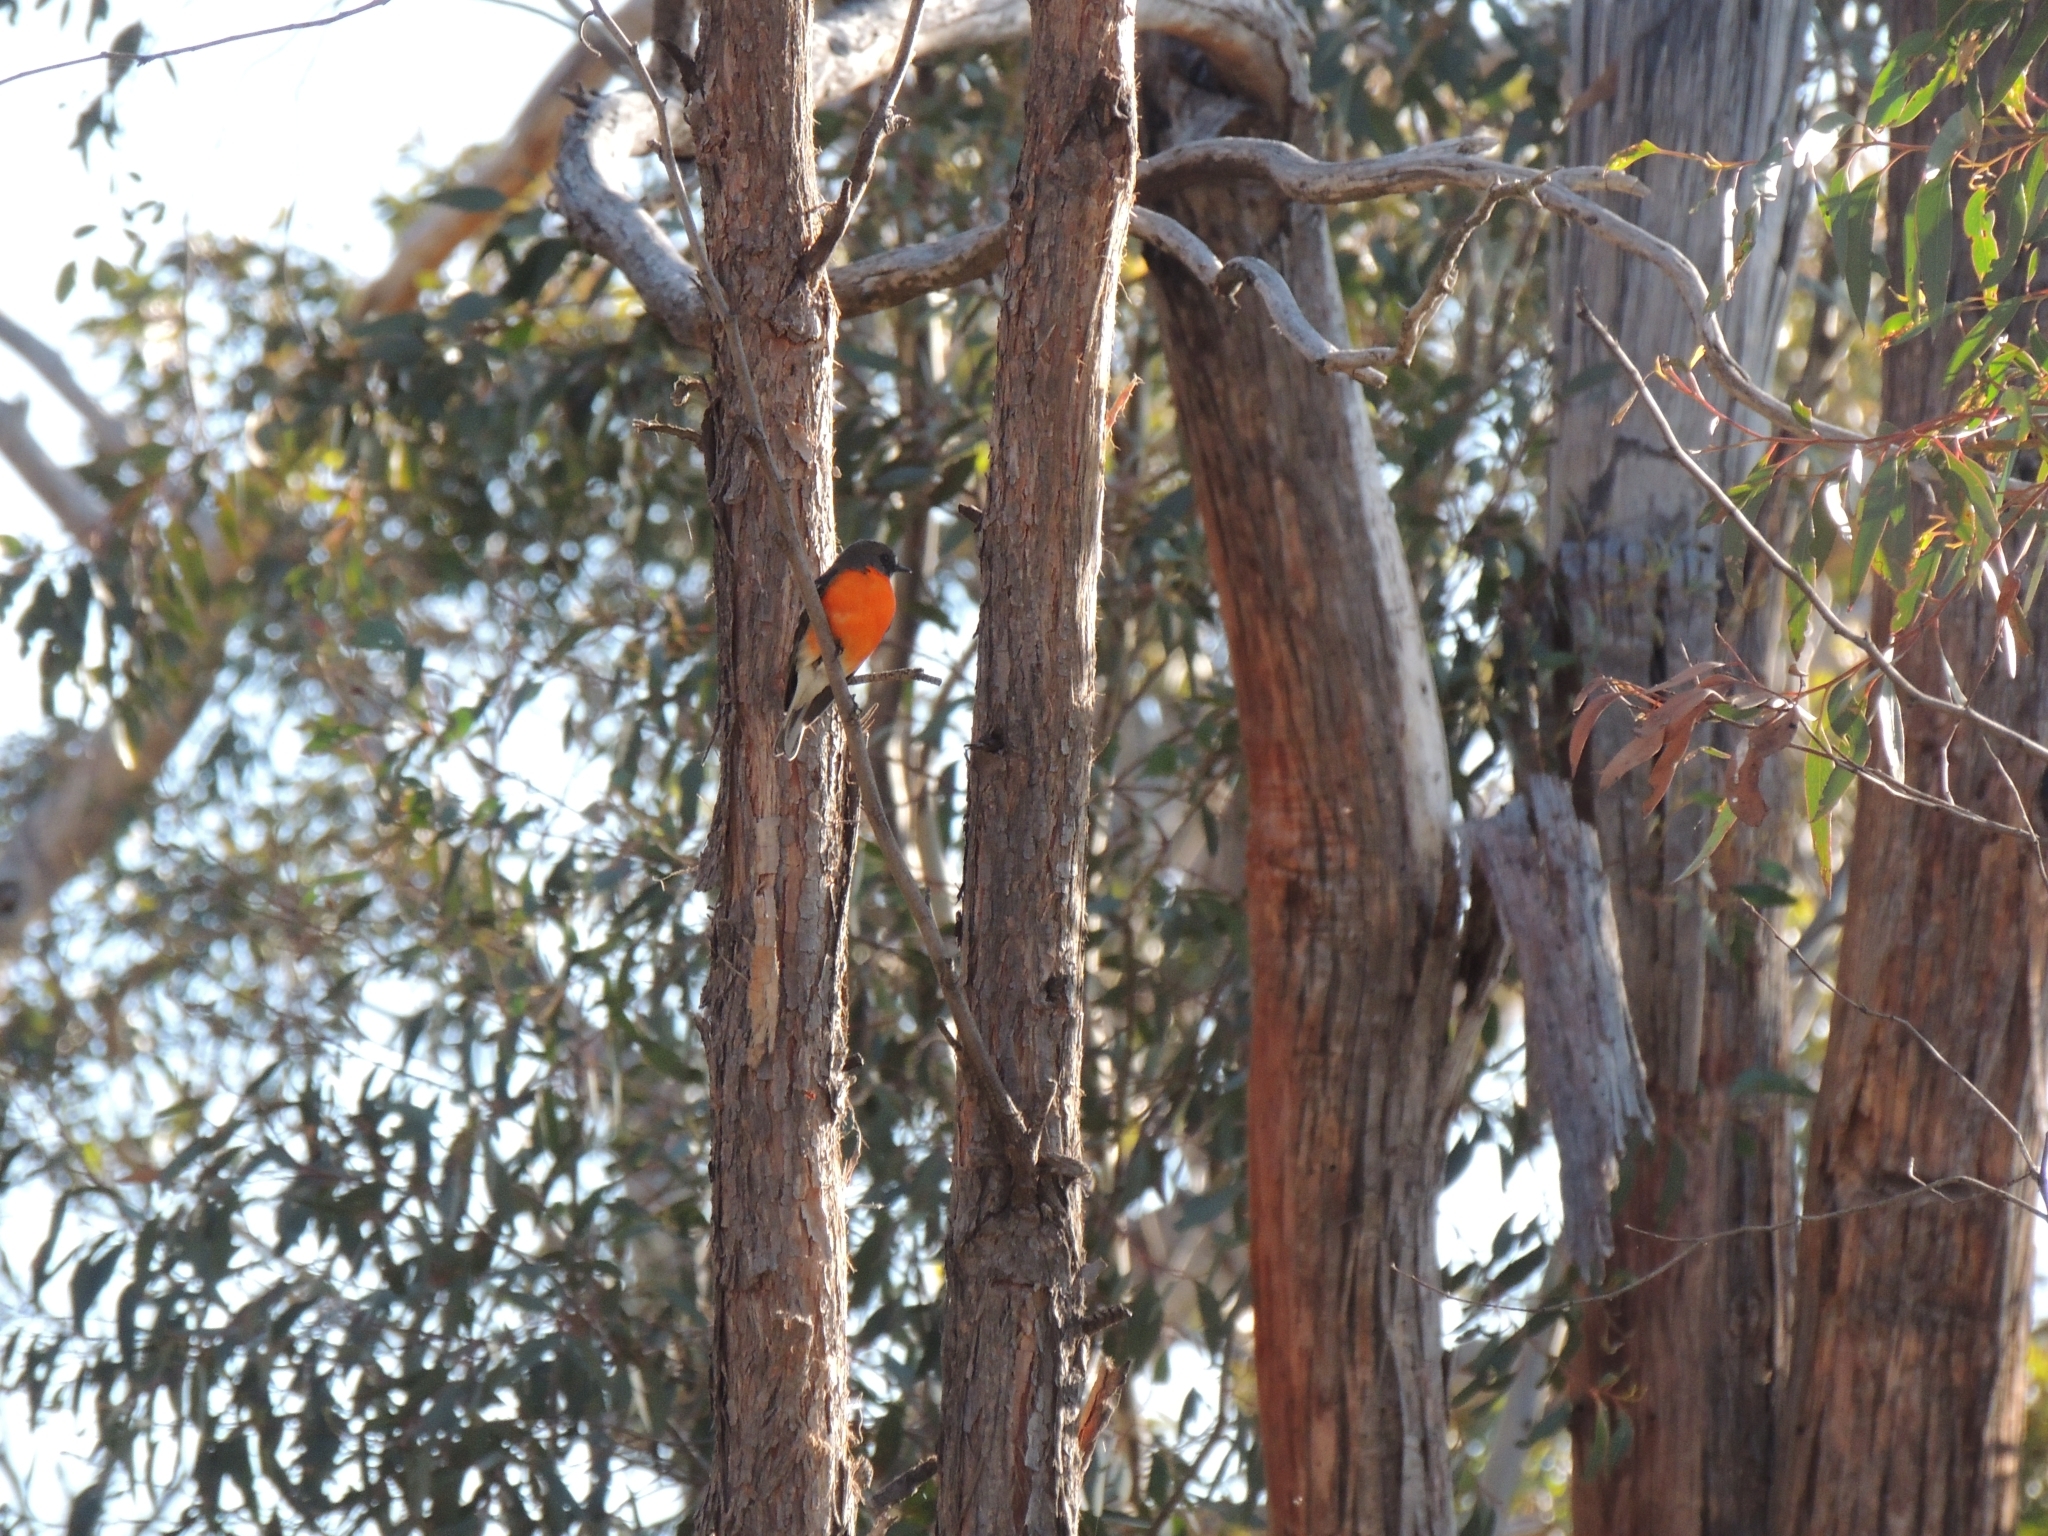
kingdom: Animalia
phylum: Chordata
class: Aves
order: Passeriformes
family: Petroicidae
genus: Petroica
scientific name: Petroica phoenicea
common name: Flame robin
